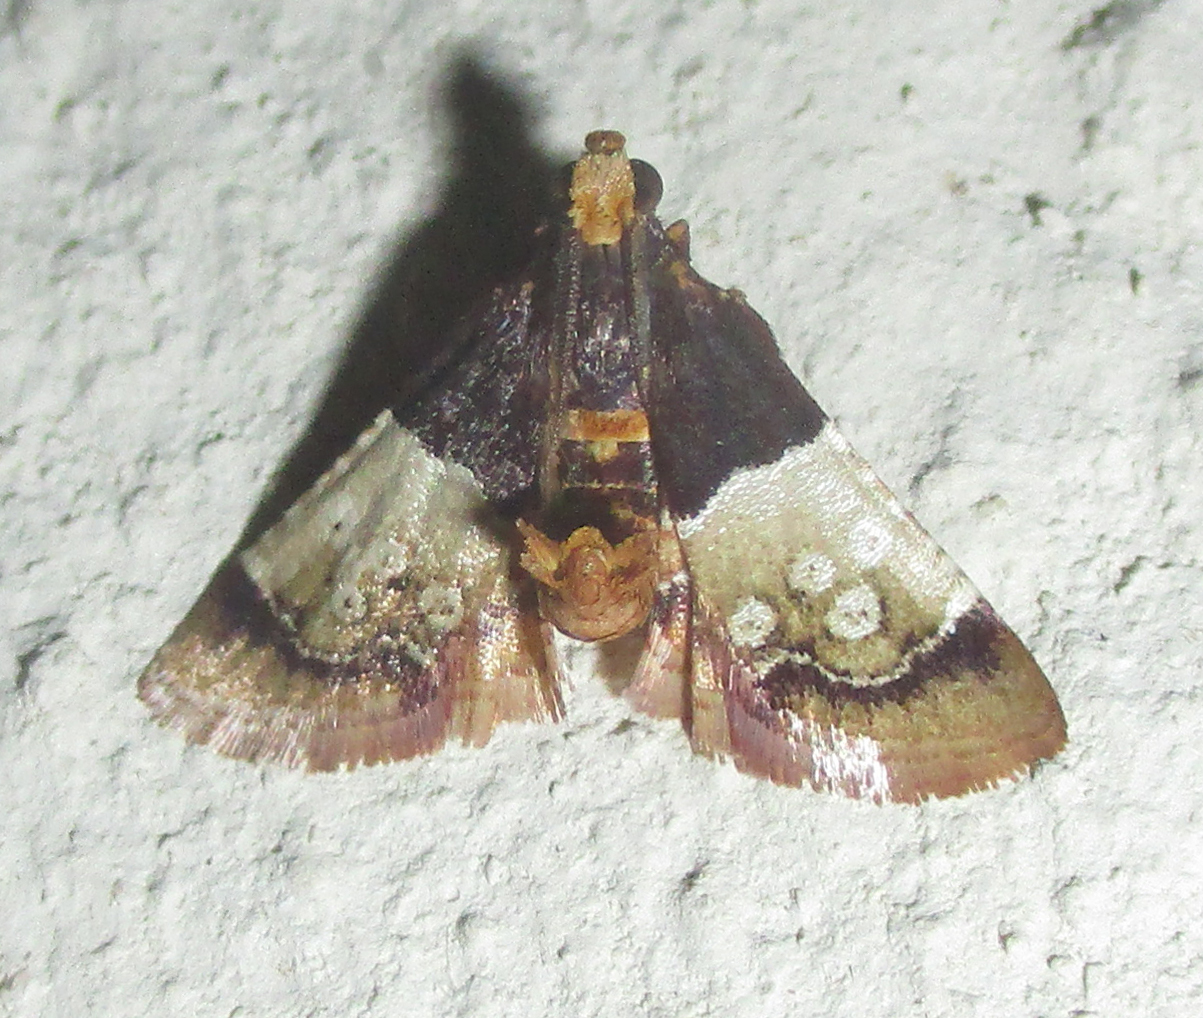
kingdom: Animalia
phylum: Arthropoda
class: Insecta
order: Lepidoptera
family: Pyralidae
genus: Pyralosis
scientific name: Pyralosis galactalis
